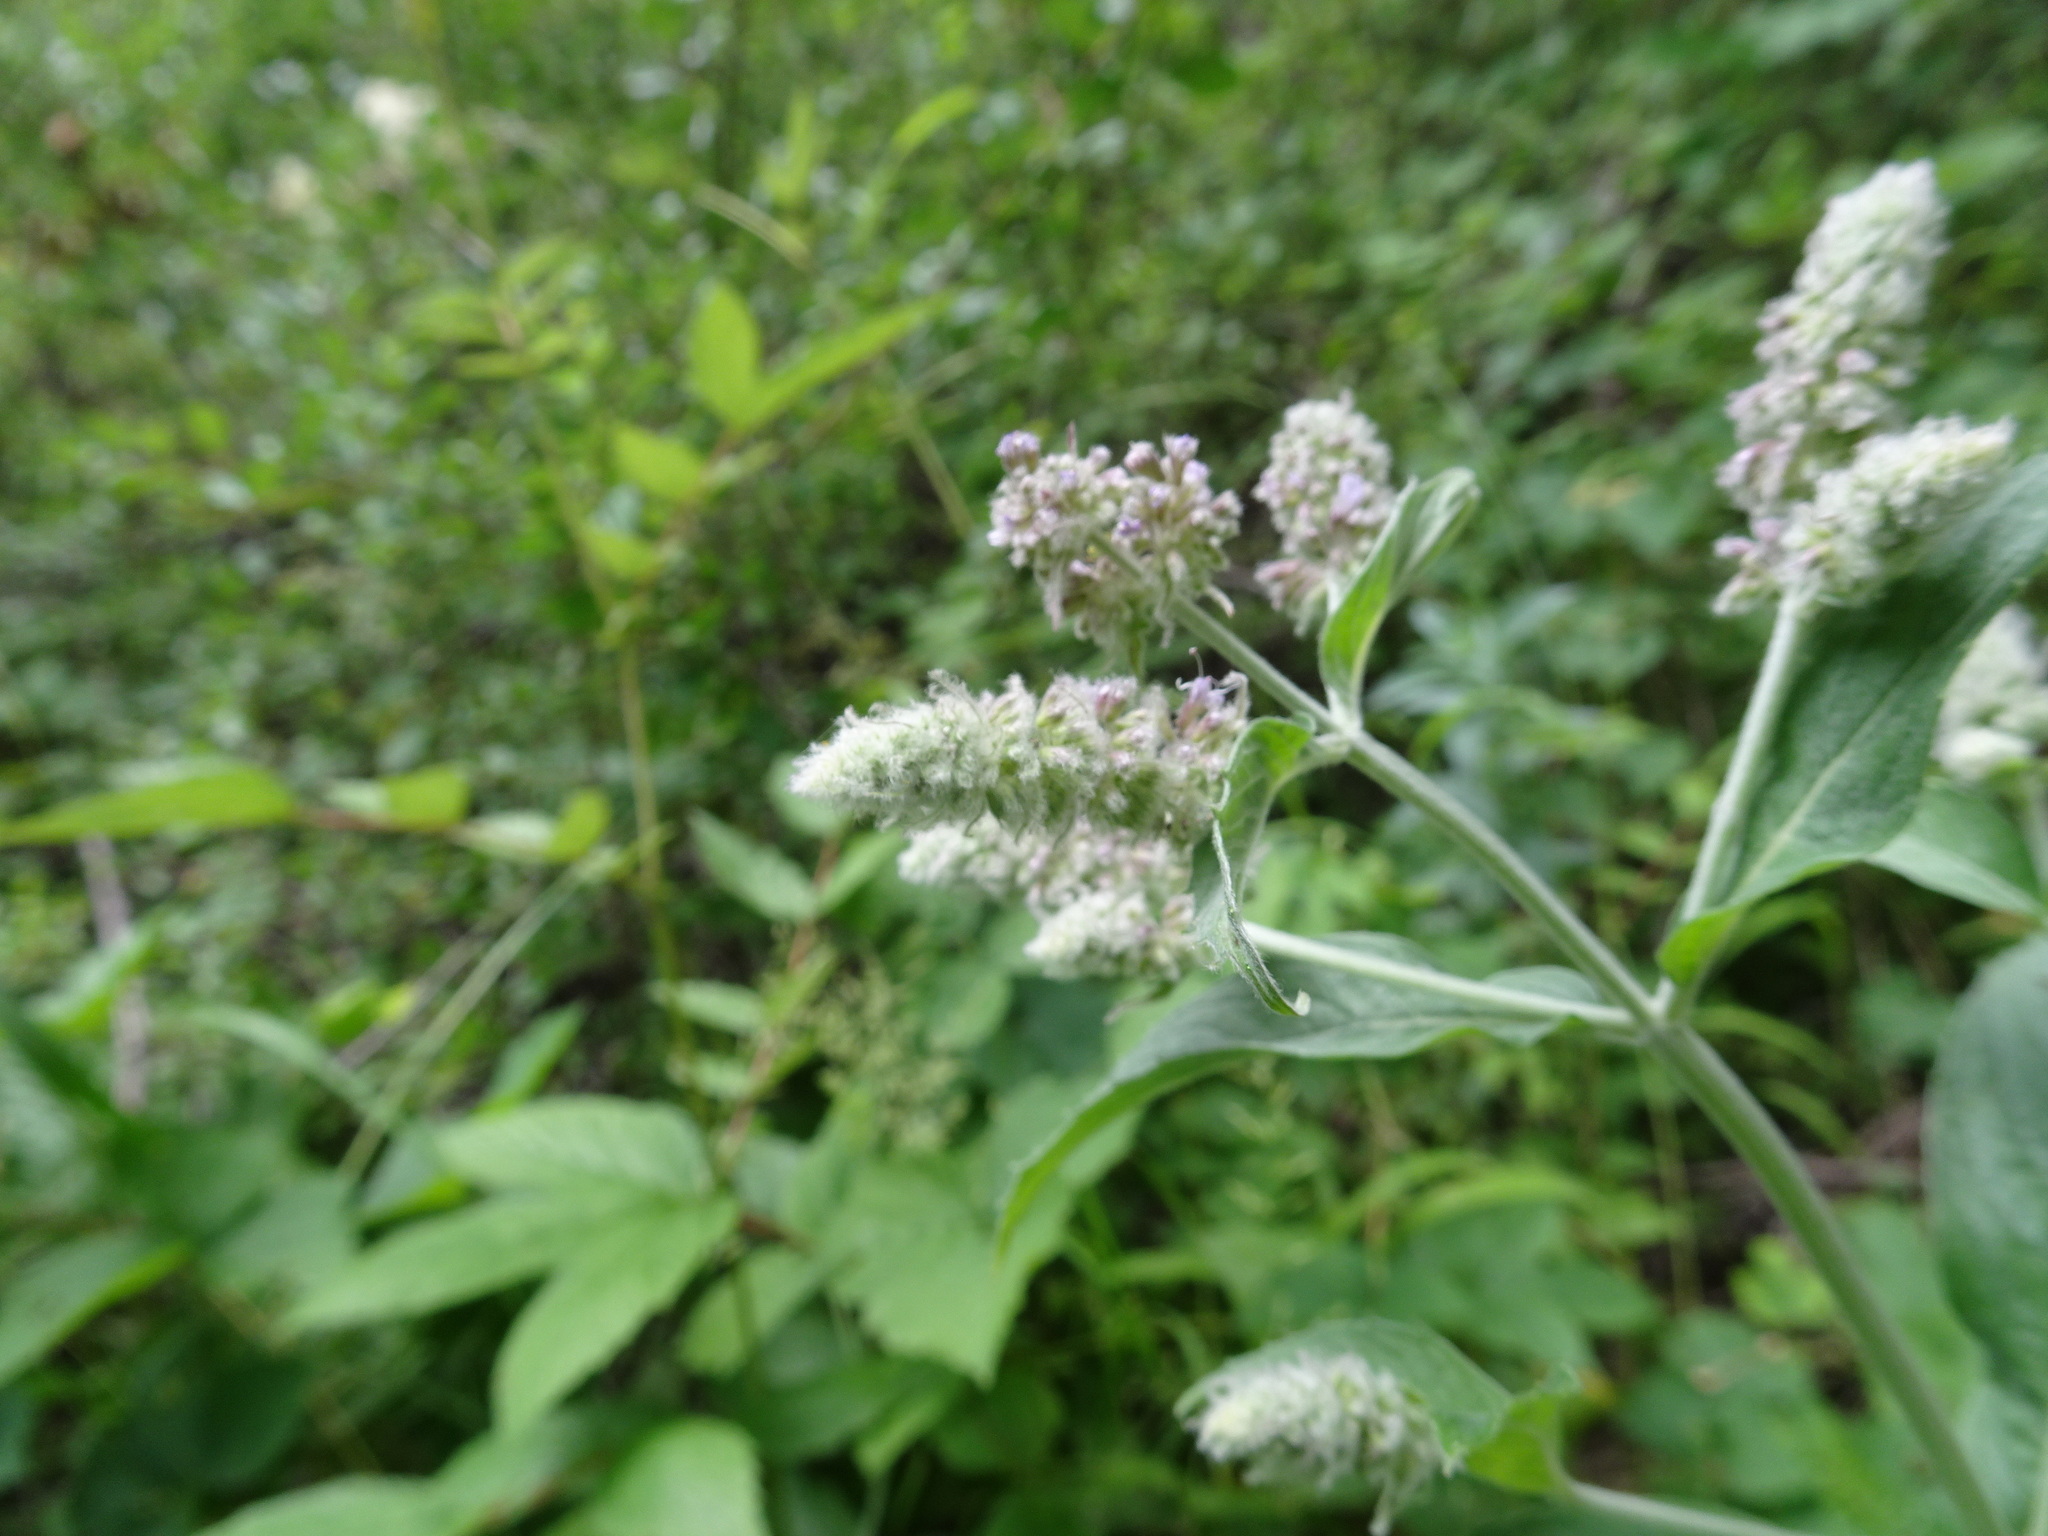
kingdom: Plantae
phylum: Tracheophyta
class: Magnoliopsida
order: Lamiales
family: Lamiaceae
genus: Mentha
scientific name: Mentha longifolia
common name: Horse mint
